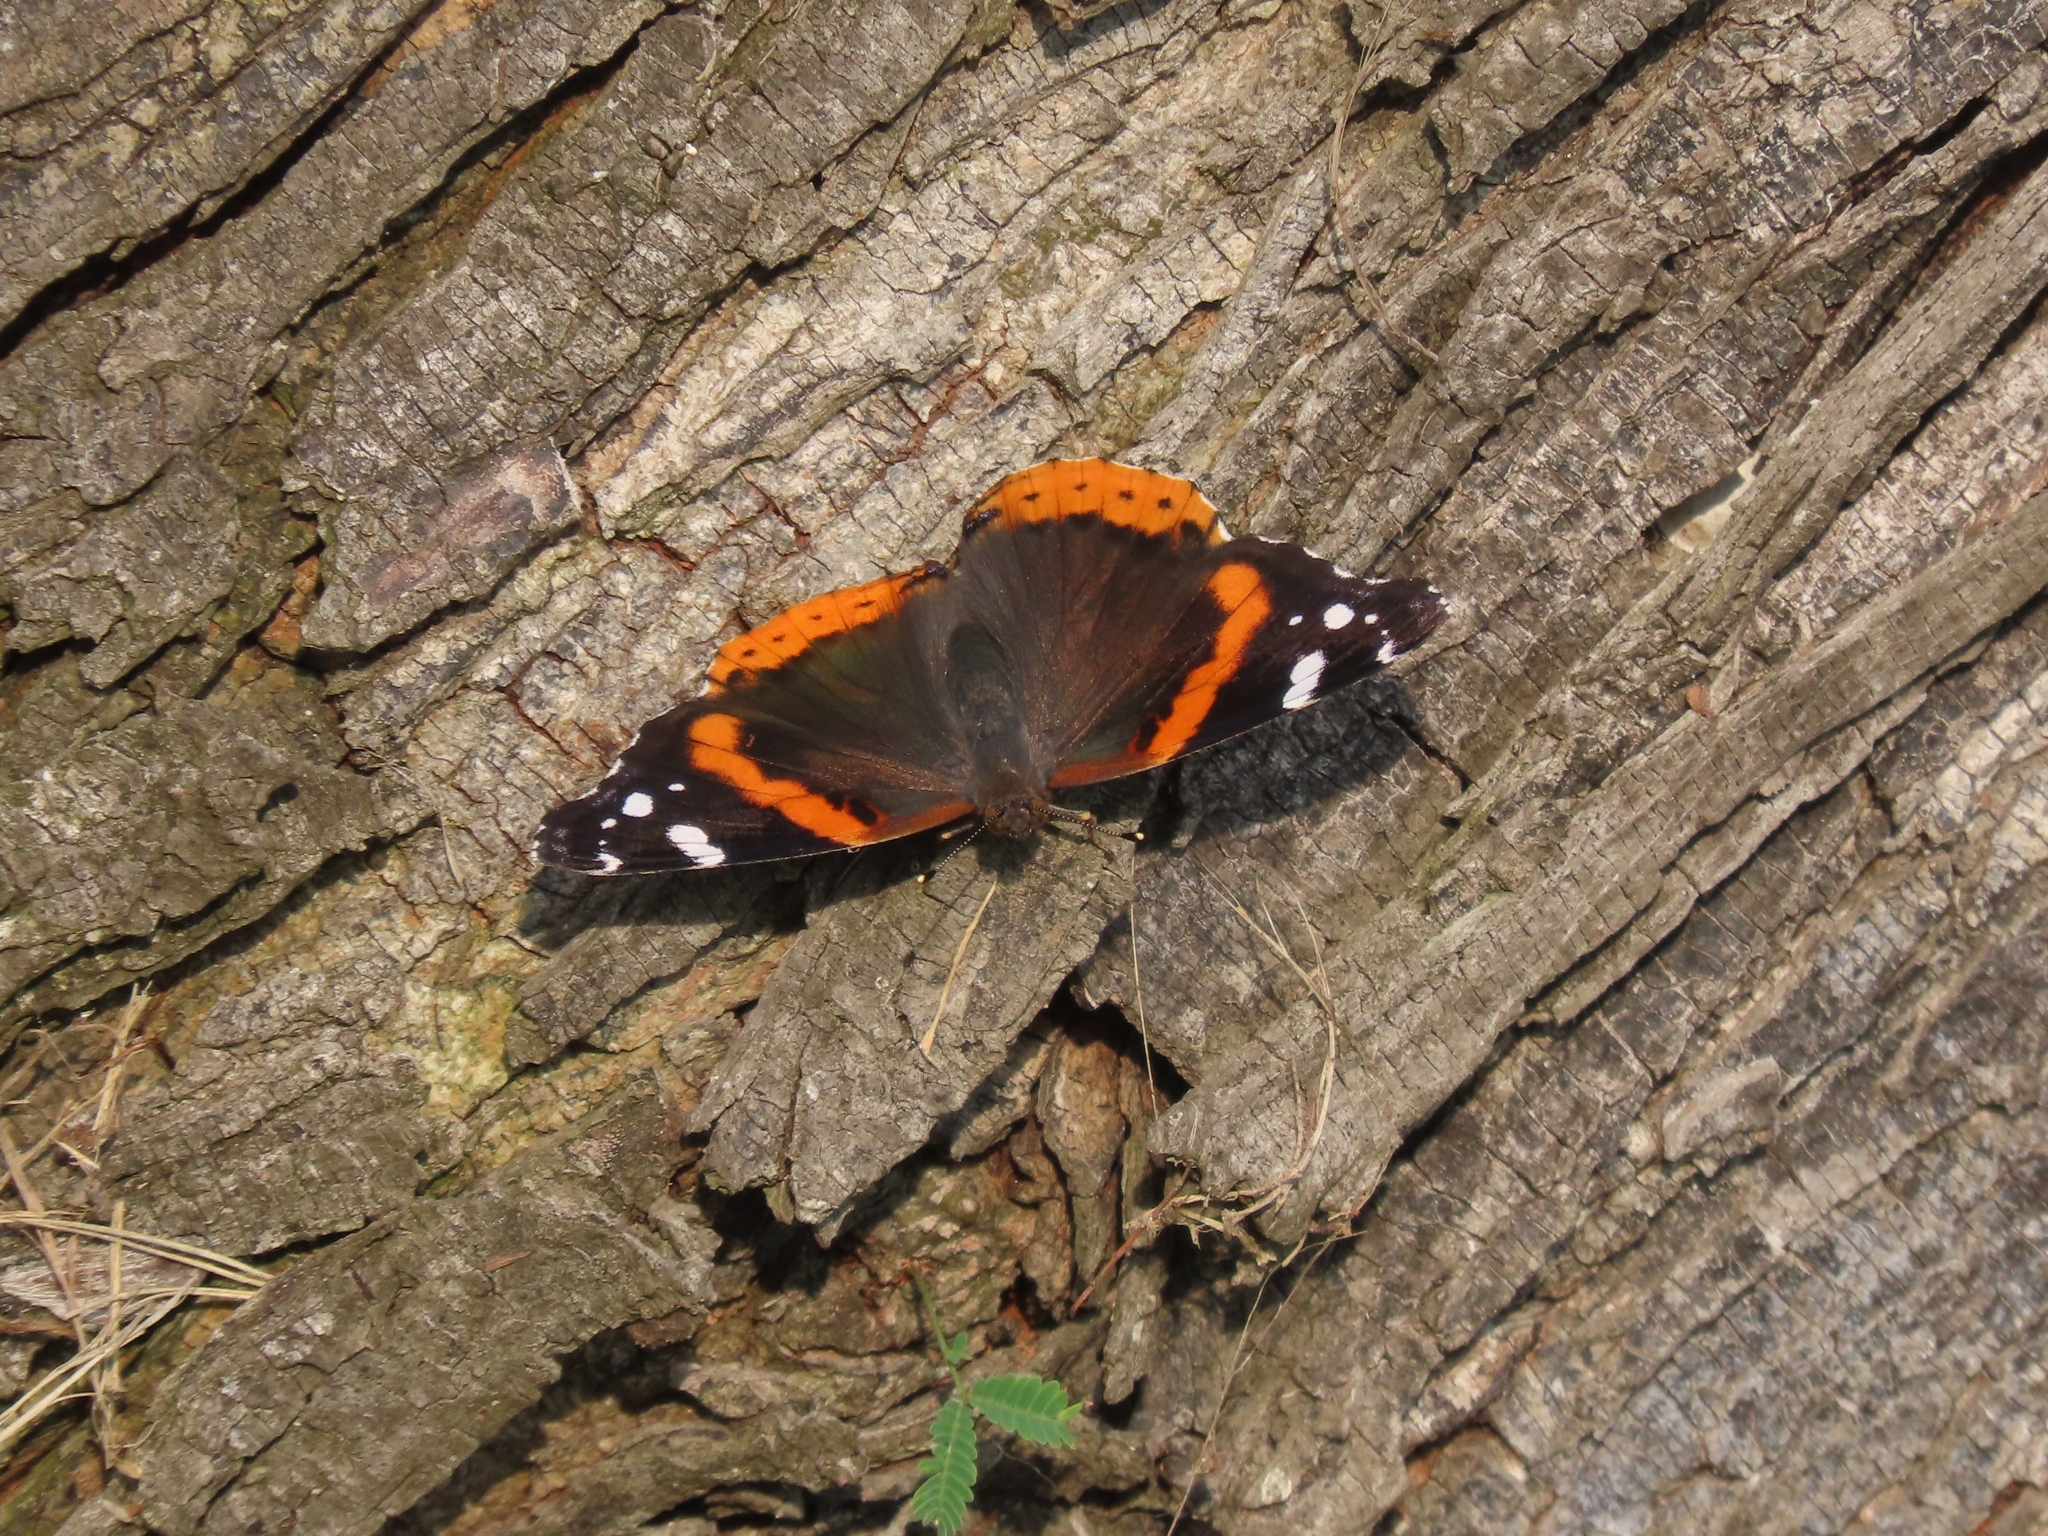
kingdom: Animalia
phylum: Arthropoda
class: Insecta
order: Lepidoptera
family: Nymphalidae
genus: Vanessa
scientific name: Vanessa atalanta
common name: Red admiral
